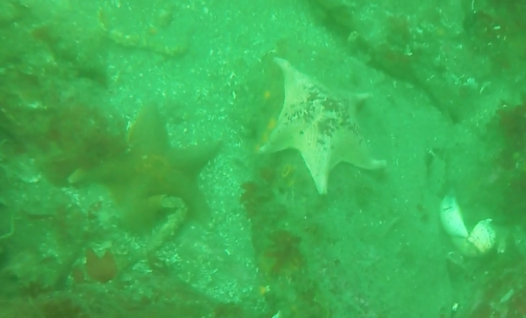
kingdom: Animalia
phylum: Echinodermata
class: Asteroidea
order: Valvatida
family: Asterinidae
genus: Patiria
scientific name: Patiria miniata
